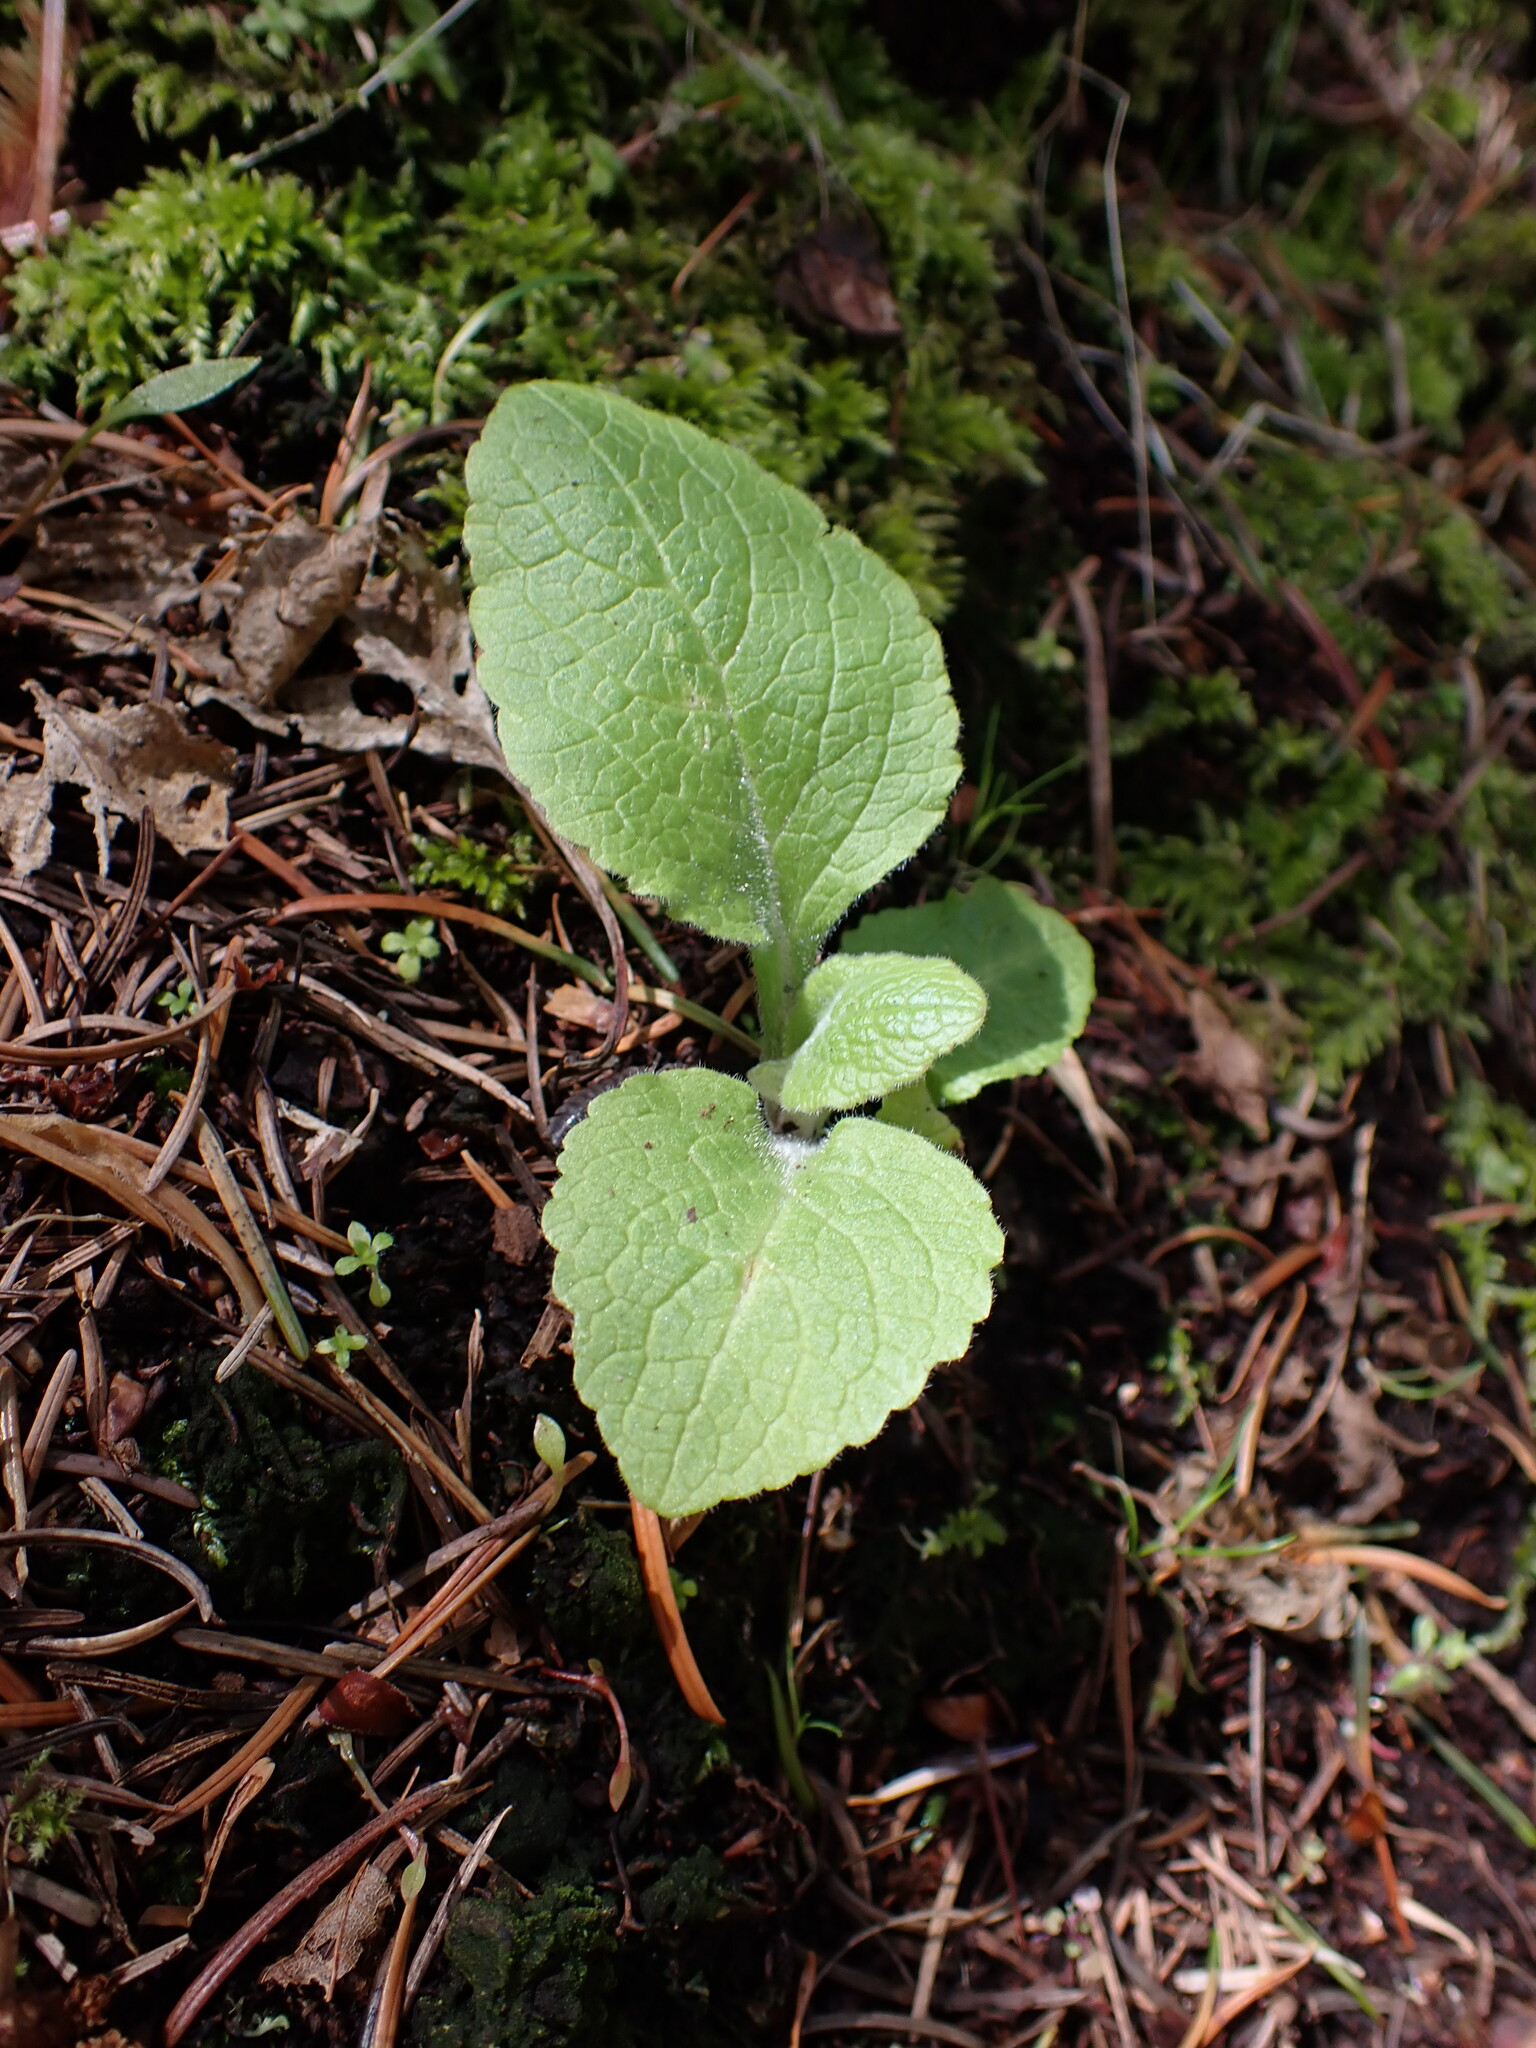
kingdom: Plantae
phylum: Tracheophyta
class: Magnoliopsida
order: Lamiales
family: Plantaginaceae
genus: Digitalis
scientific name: Digitalis purpurea
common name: Foxglove
